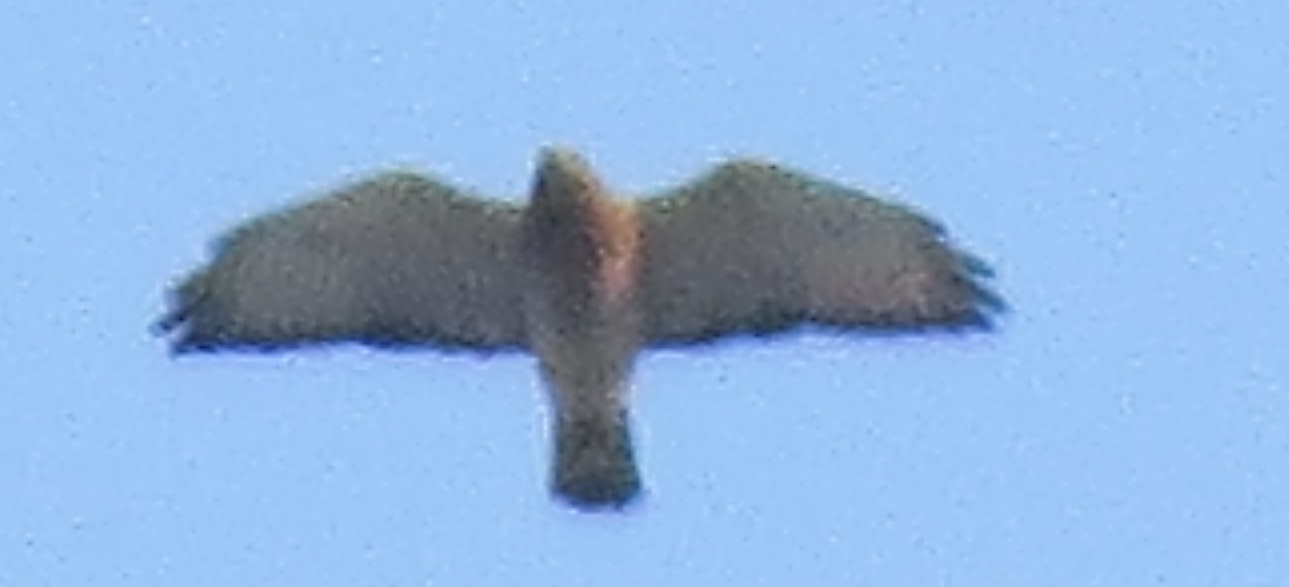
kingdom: Animalia
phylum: Chordata
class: Aves
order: Accipitriformes
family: Accipitridae
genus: Buteo
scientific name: Buteo platypterus
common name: Broad-winged hawk
